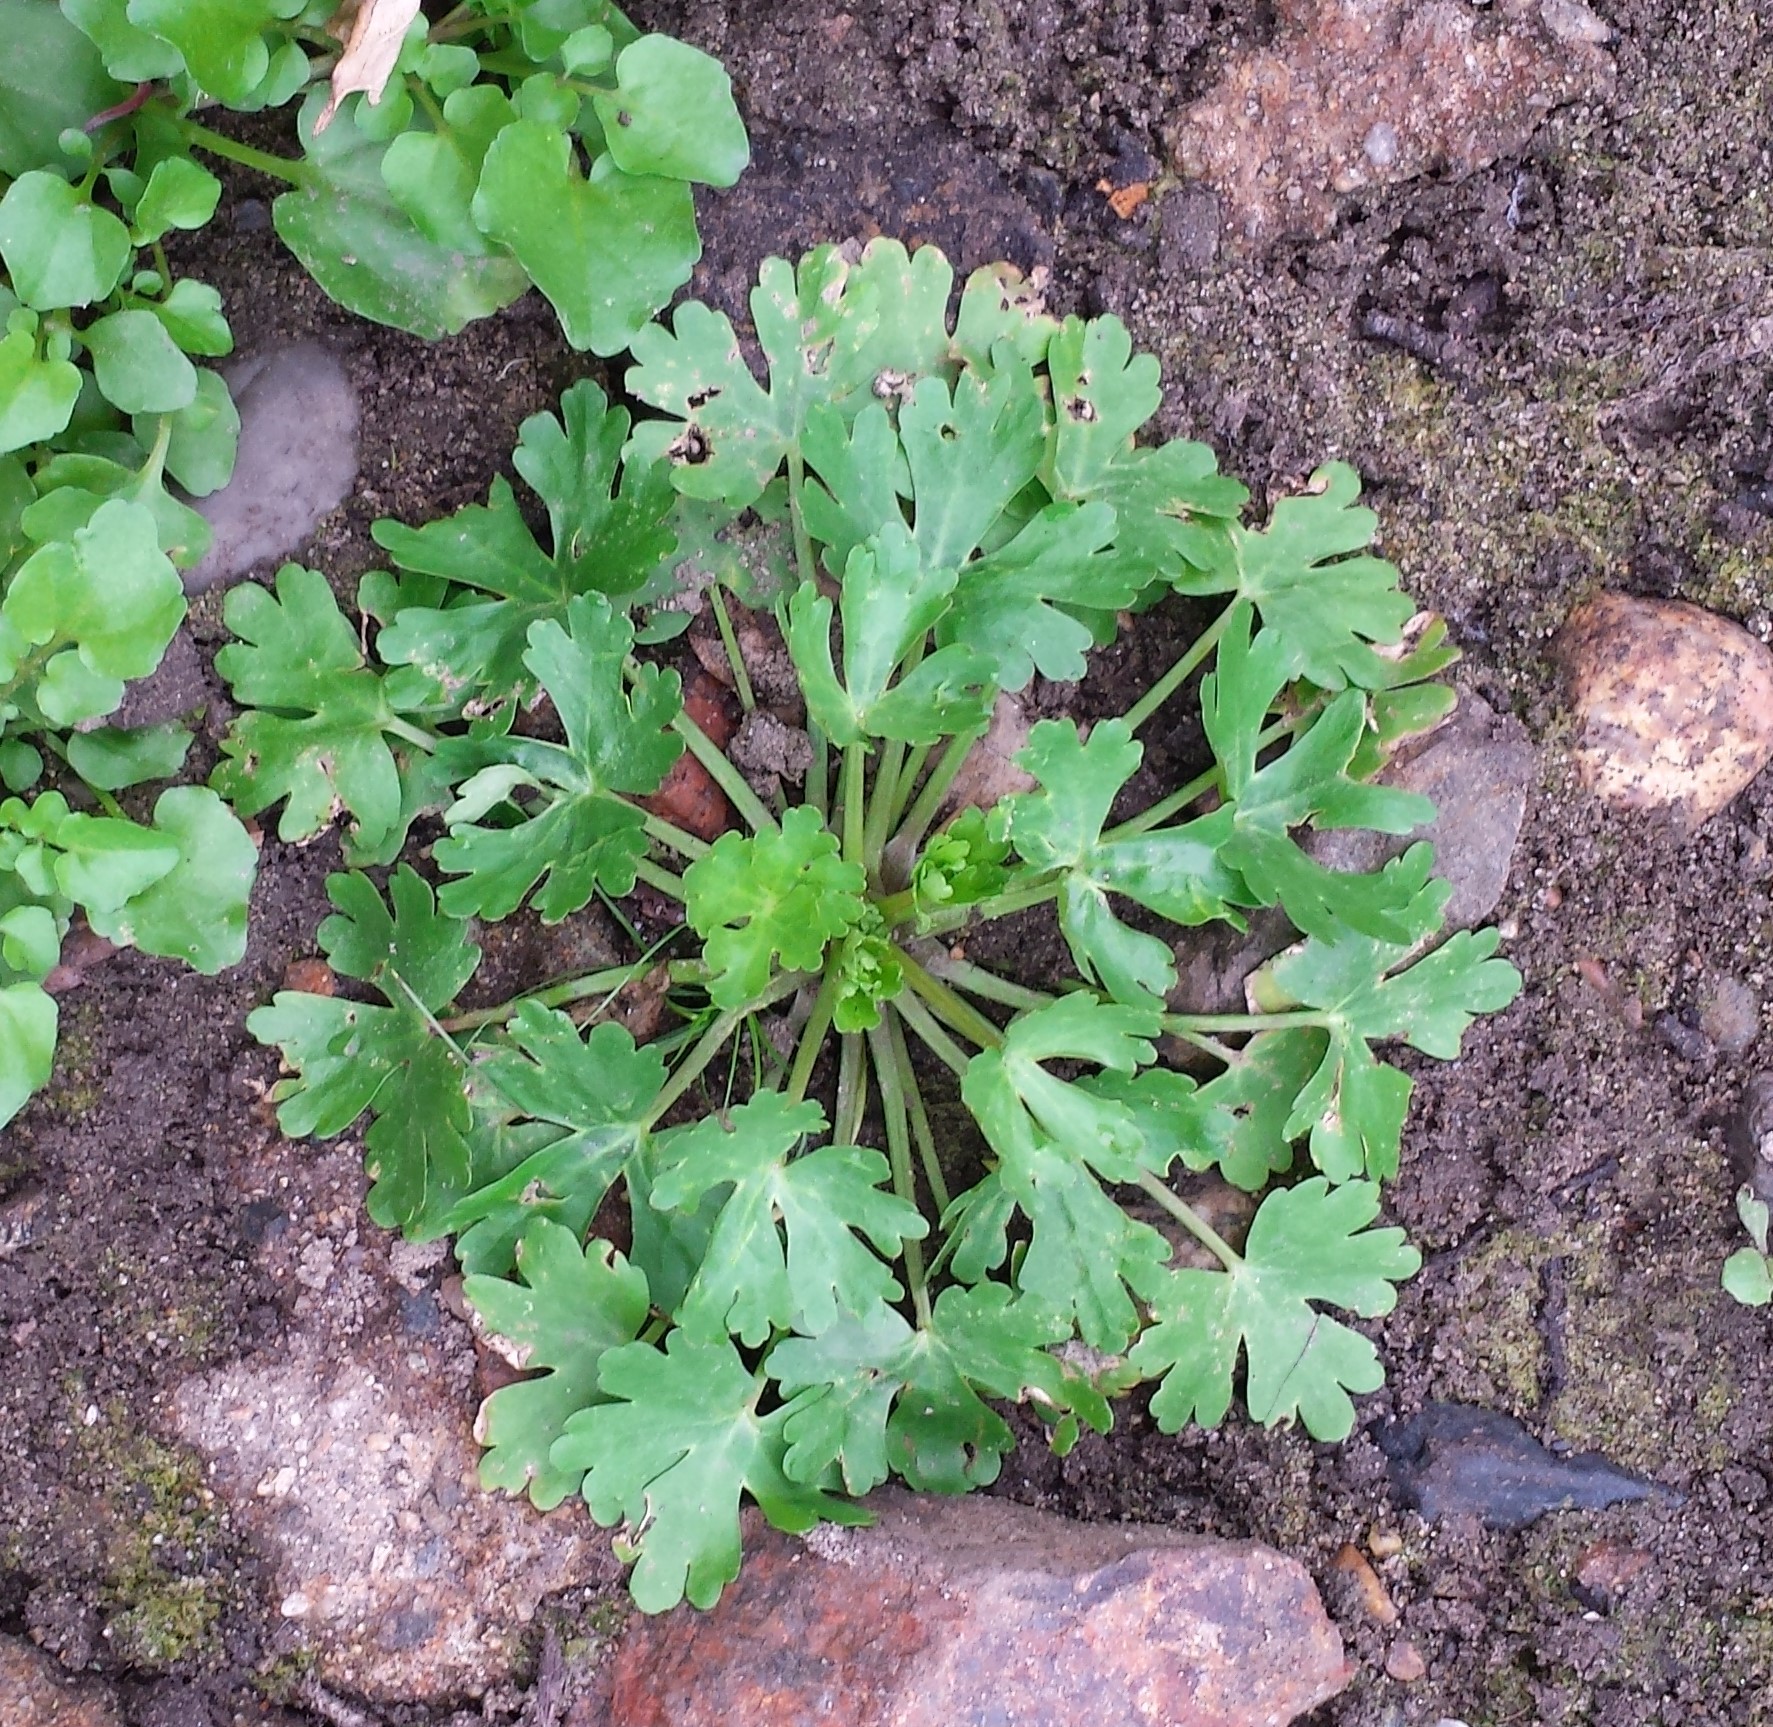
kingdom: Plantae
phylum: Tracheophyta
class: Magnoliopsida
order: Ranunculales
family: Ranunculaceae
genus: Ranunculus
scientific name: Ranunculus sceleratus
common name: Celery-leaved buttercup
